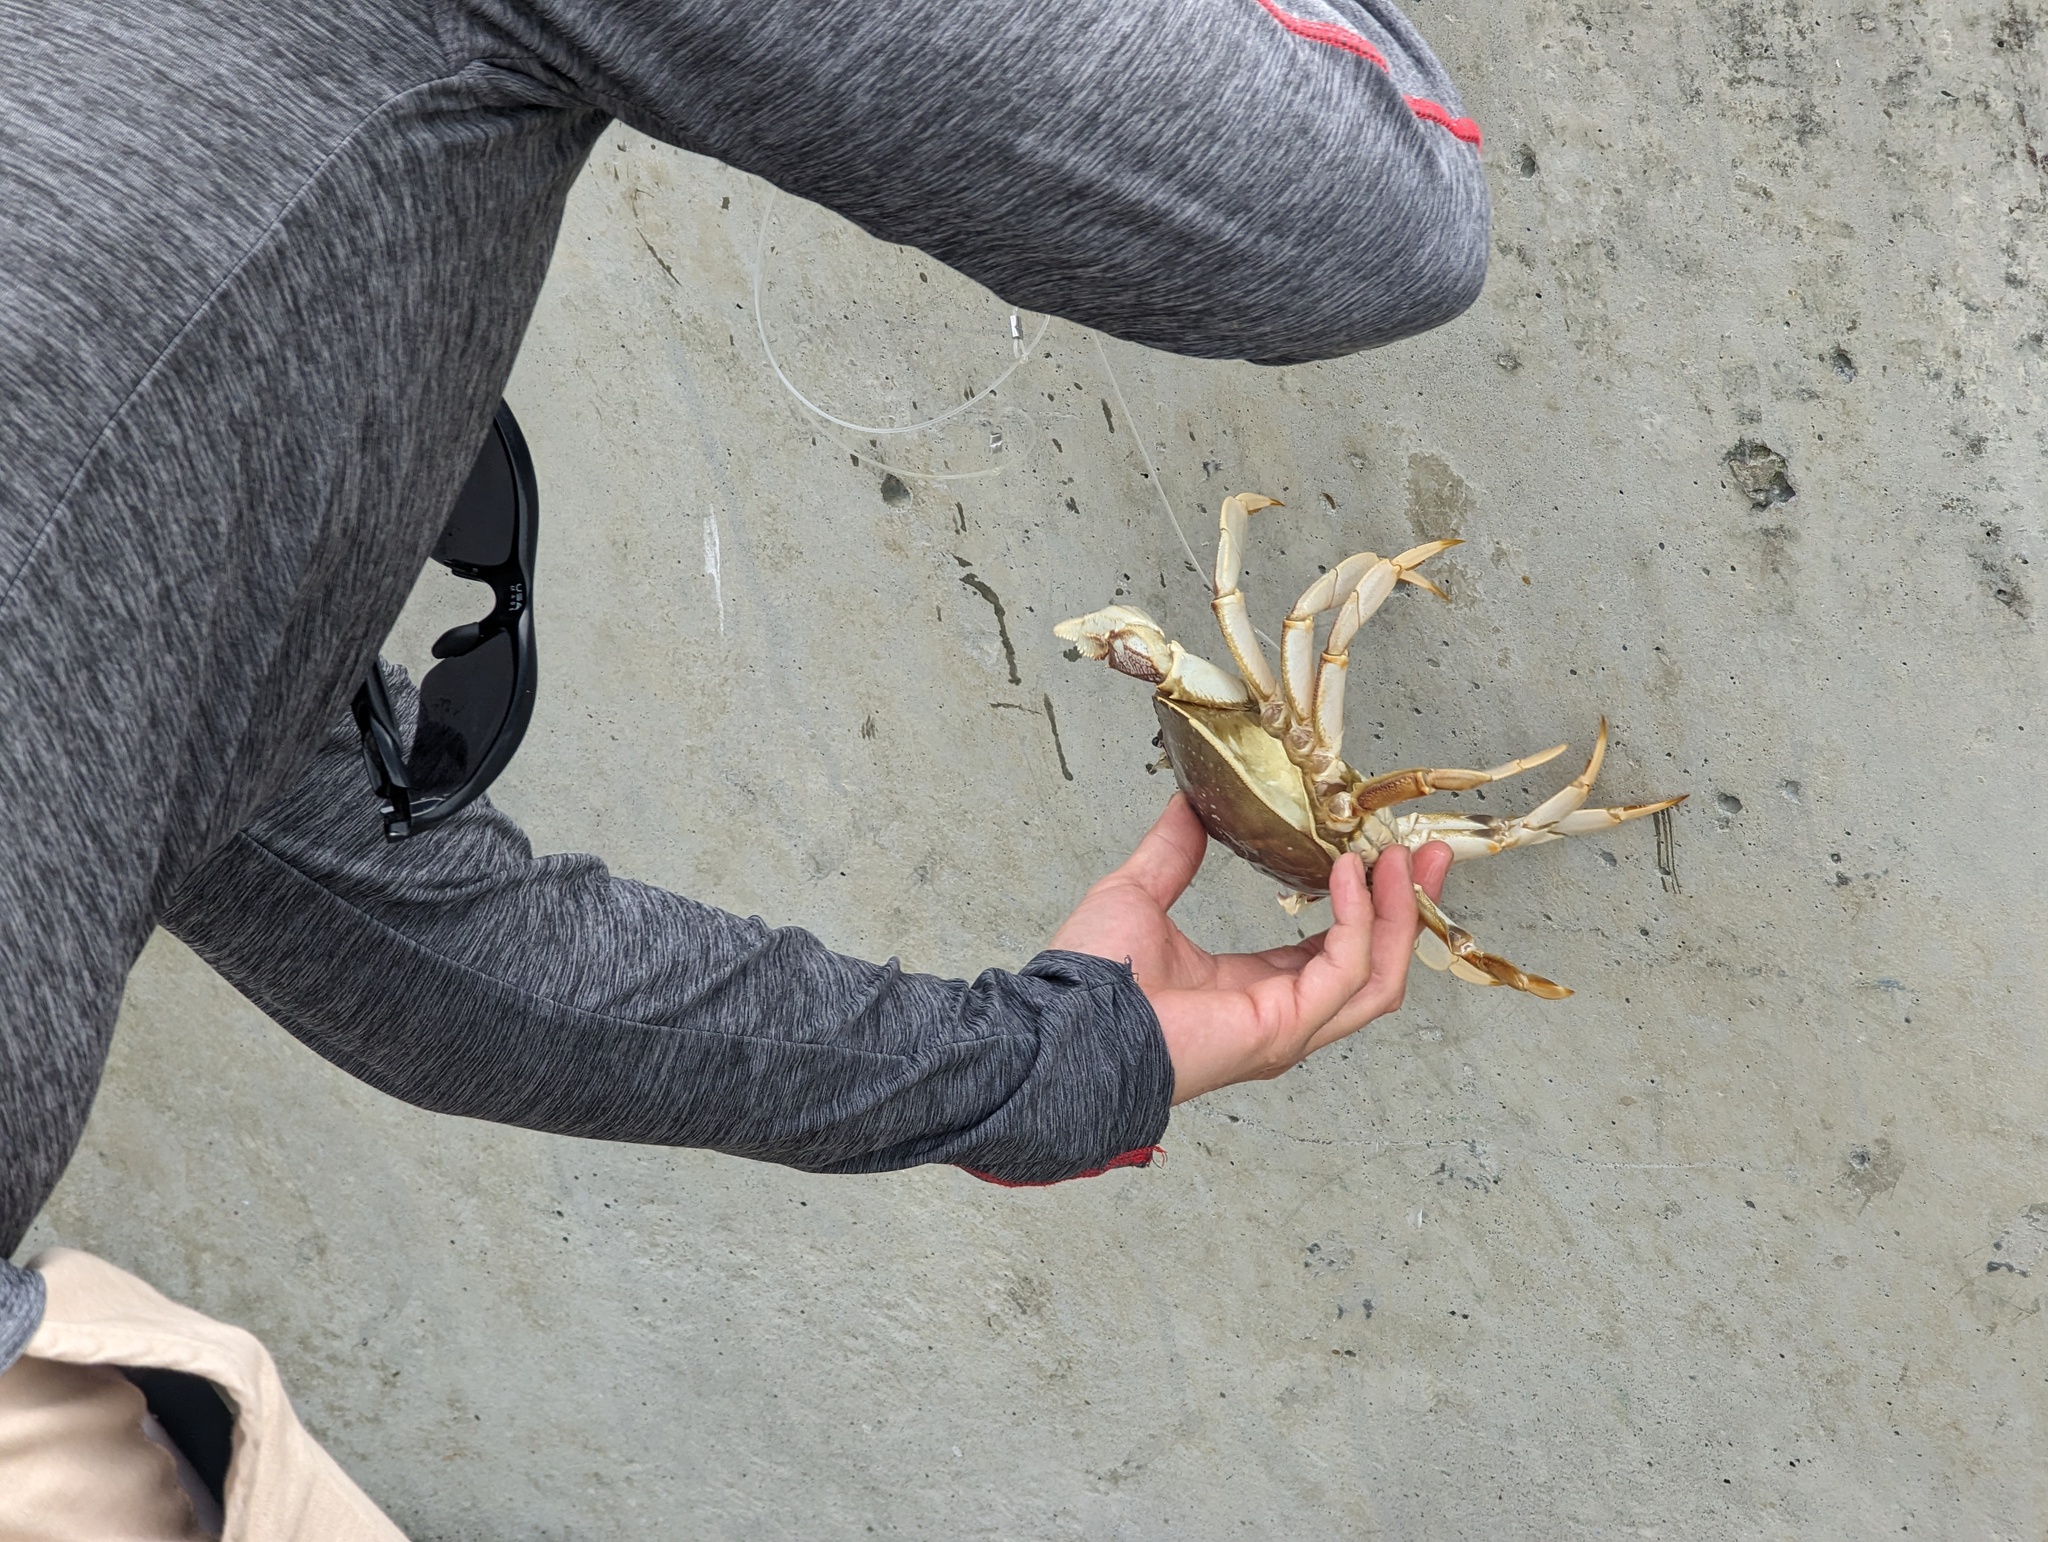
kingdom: Animalia
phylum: Arthropoda
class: Malacostraca
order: Decapoda
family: Cancridae
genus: Metacarcinus
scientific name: Metacarcinus magister
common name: Californian crab
